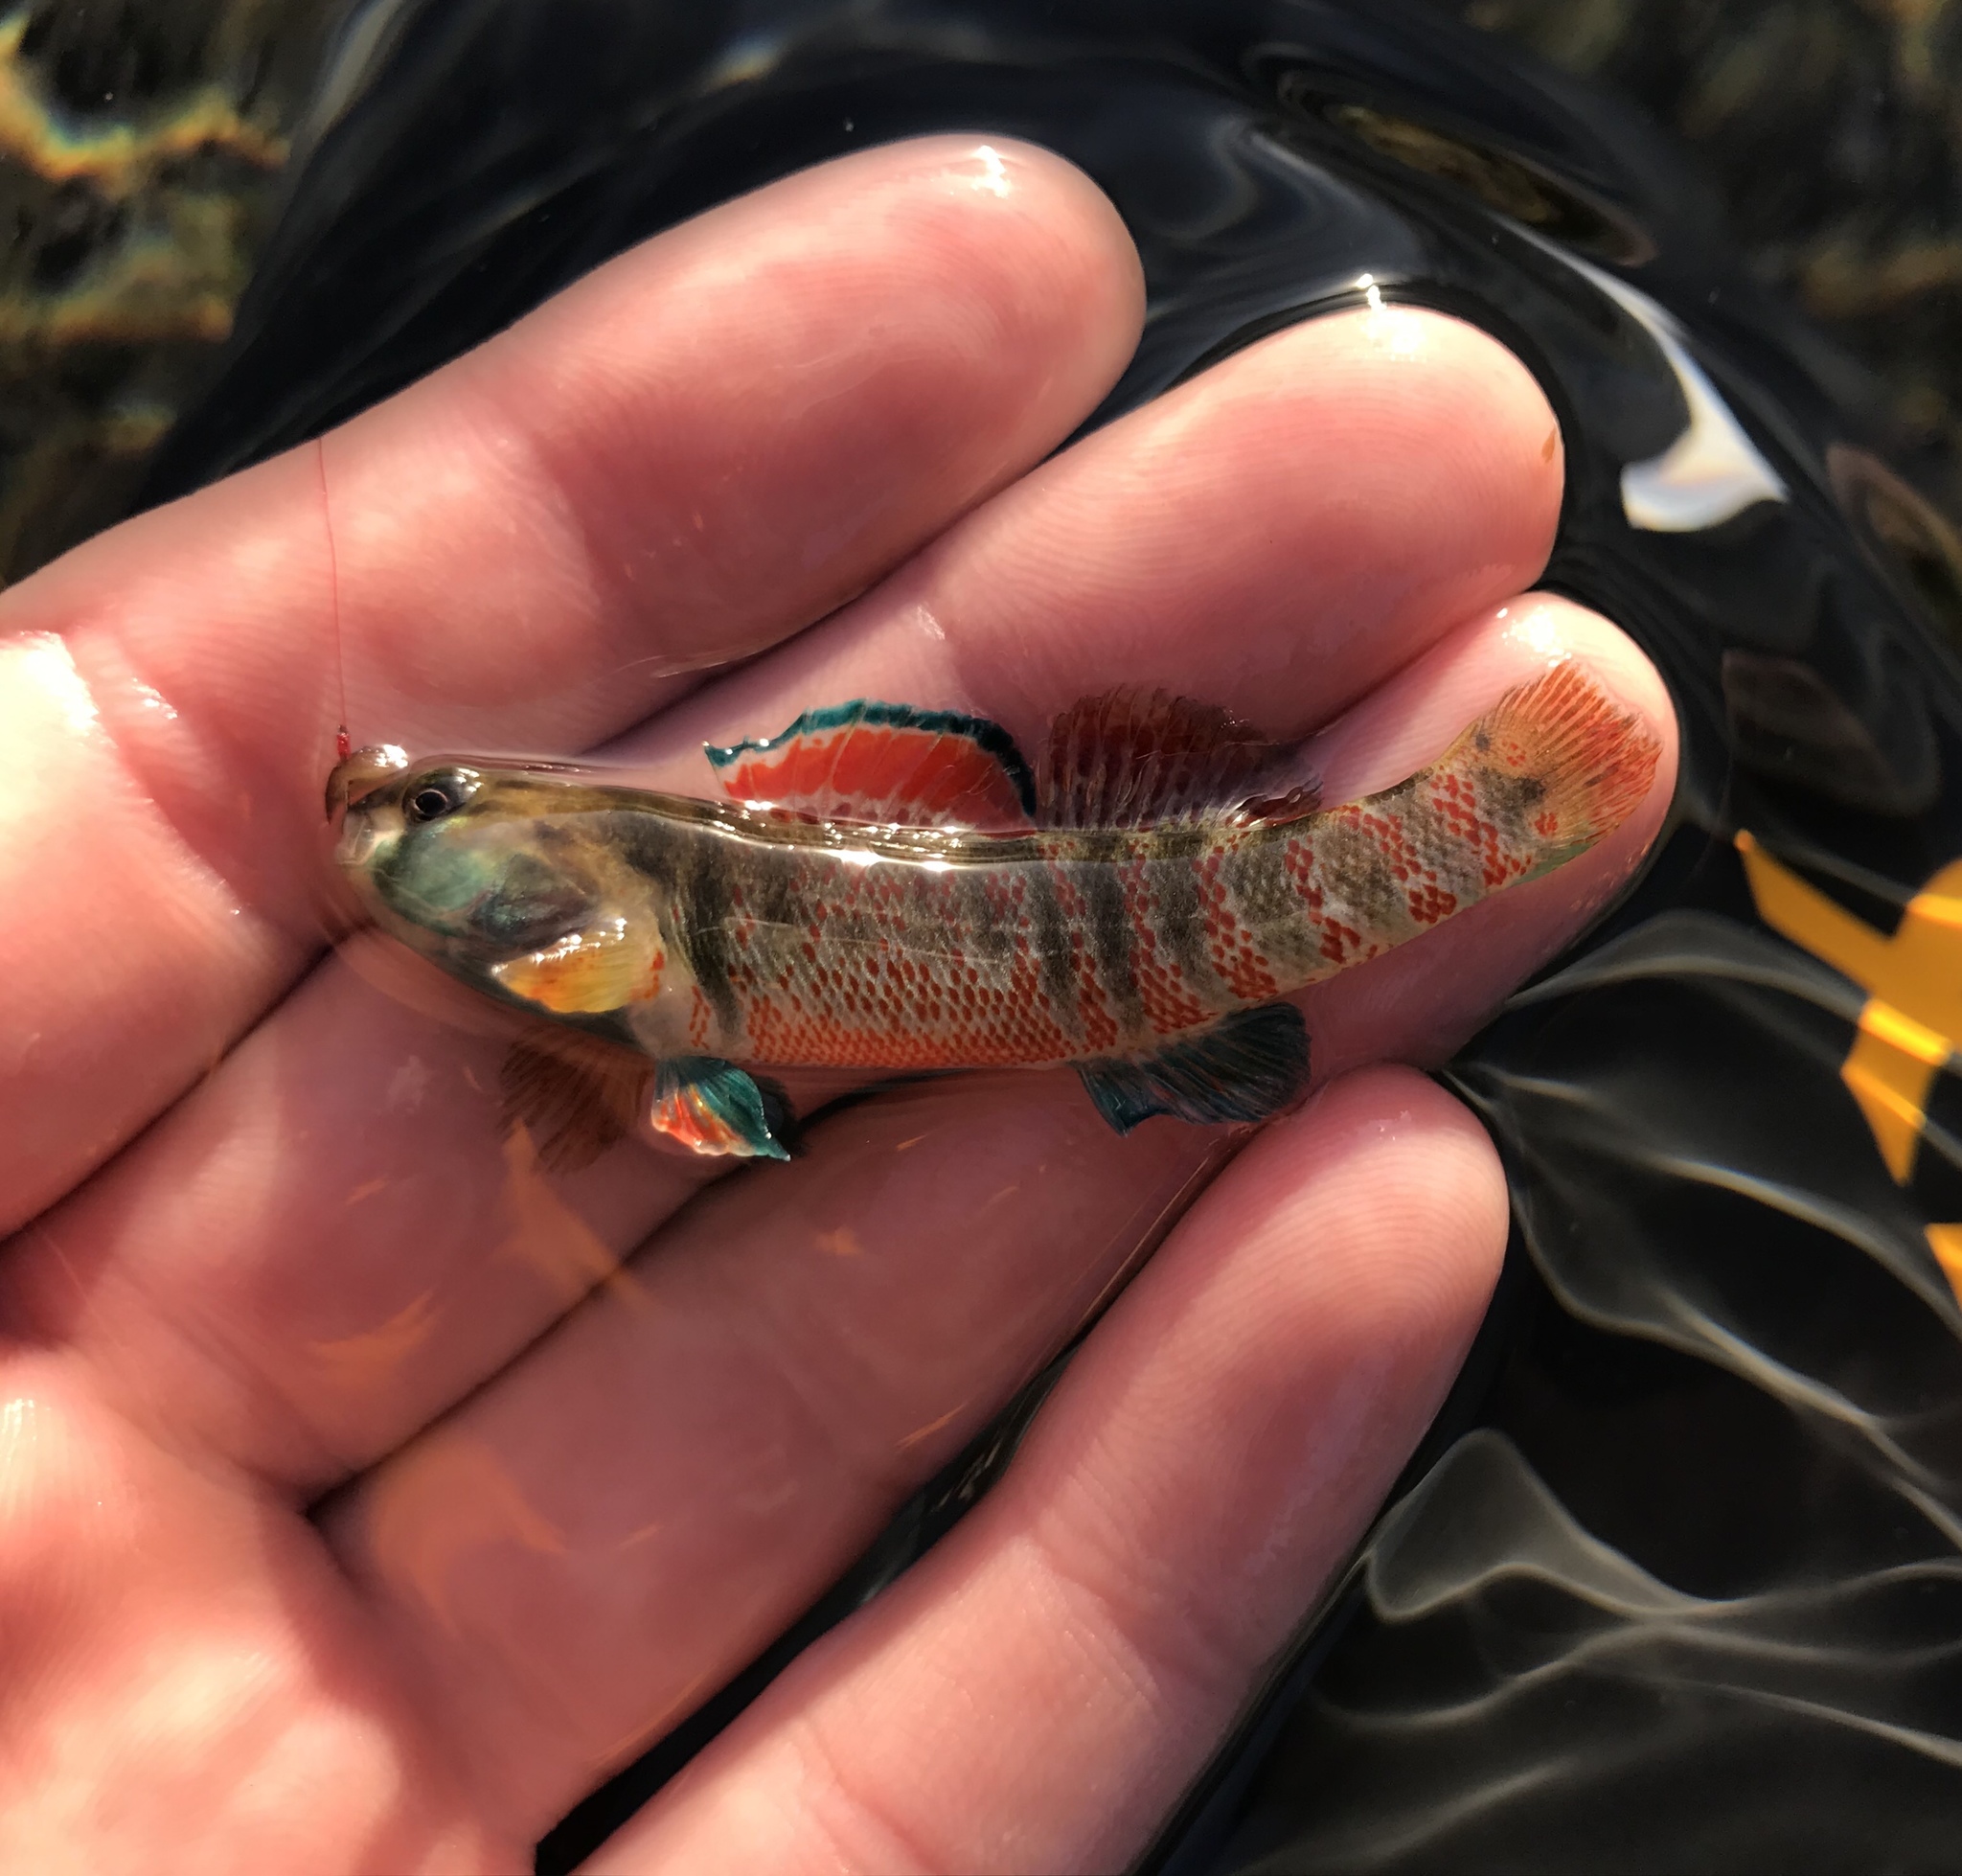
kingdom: Animalia
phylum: Chordata
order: Perciformes
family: Percidae
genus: Etheostoma
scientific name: Etheostoma lepidum
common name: Greenthroat darter
